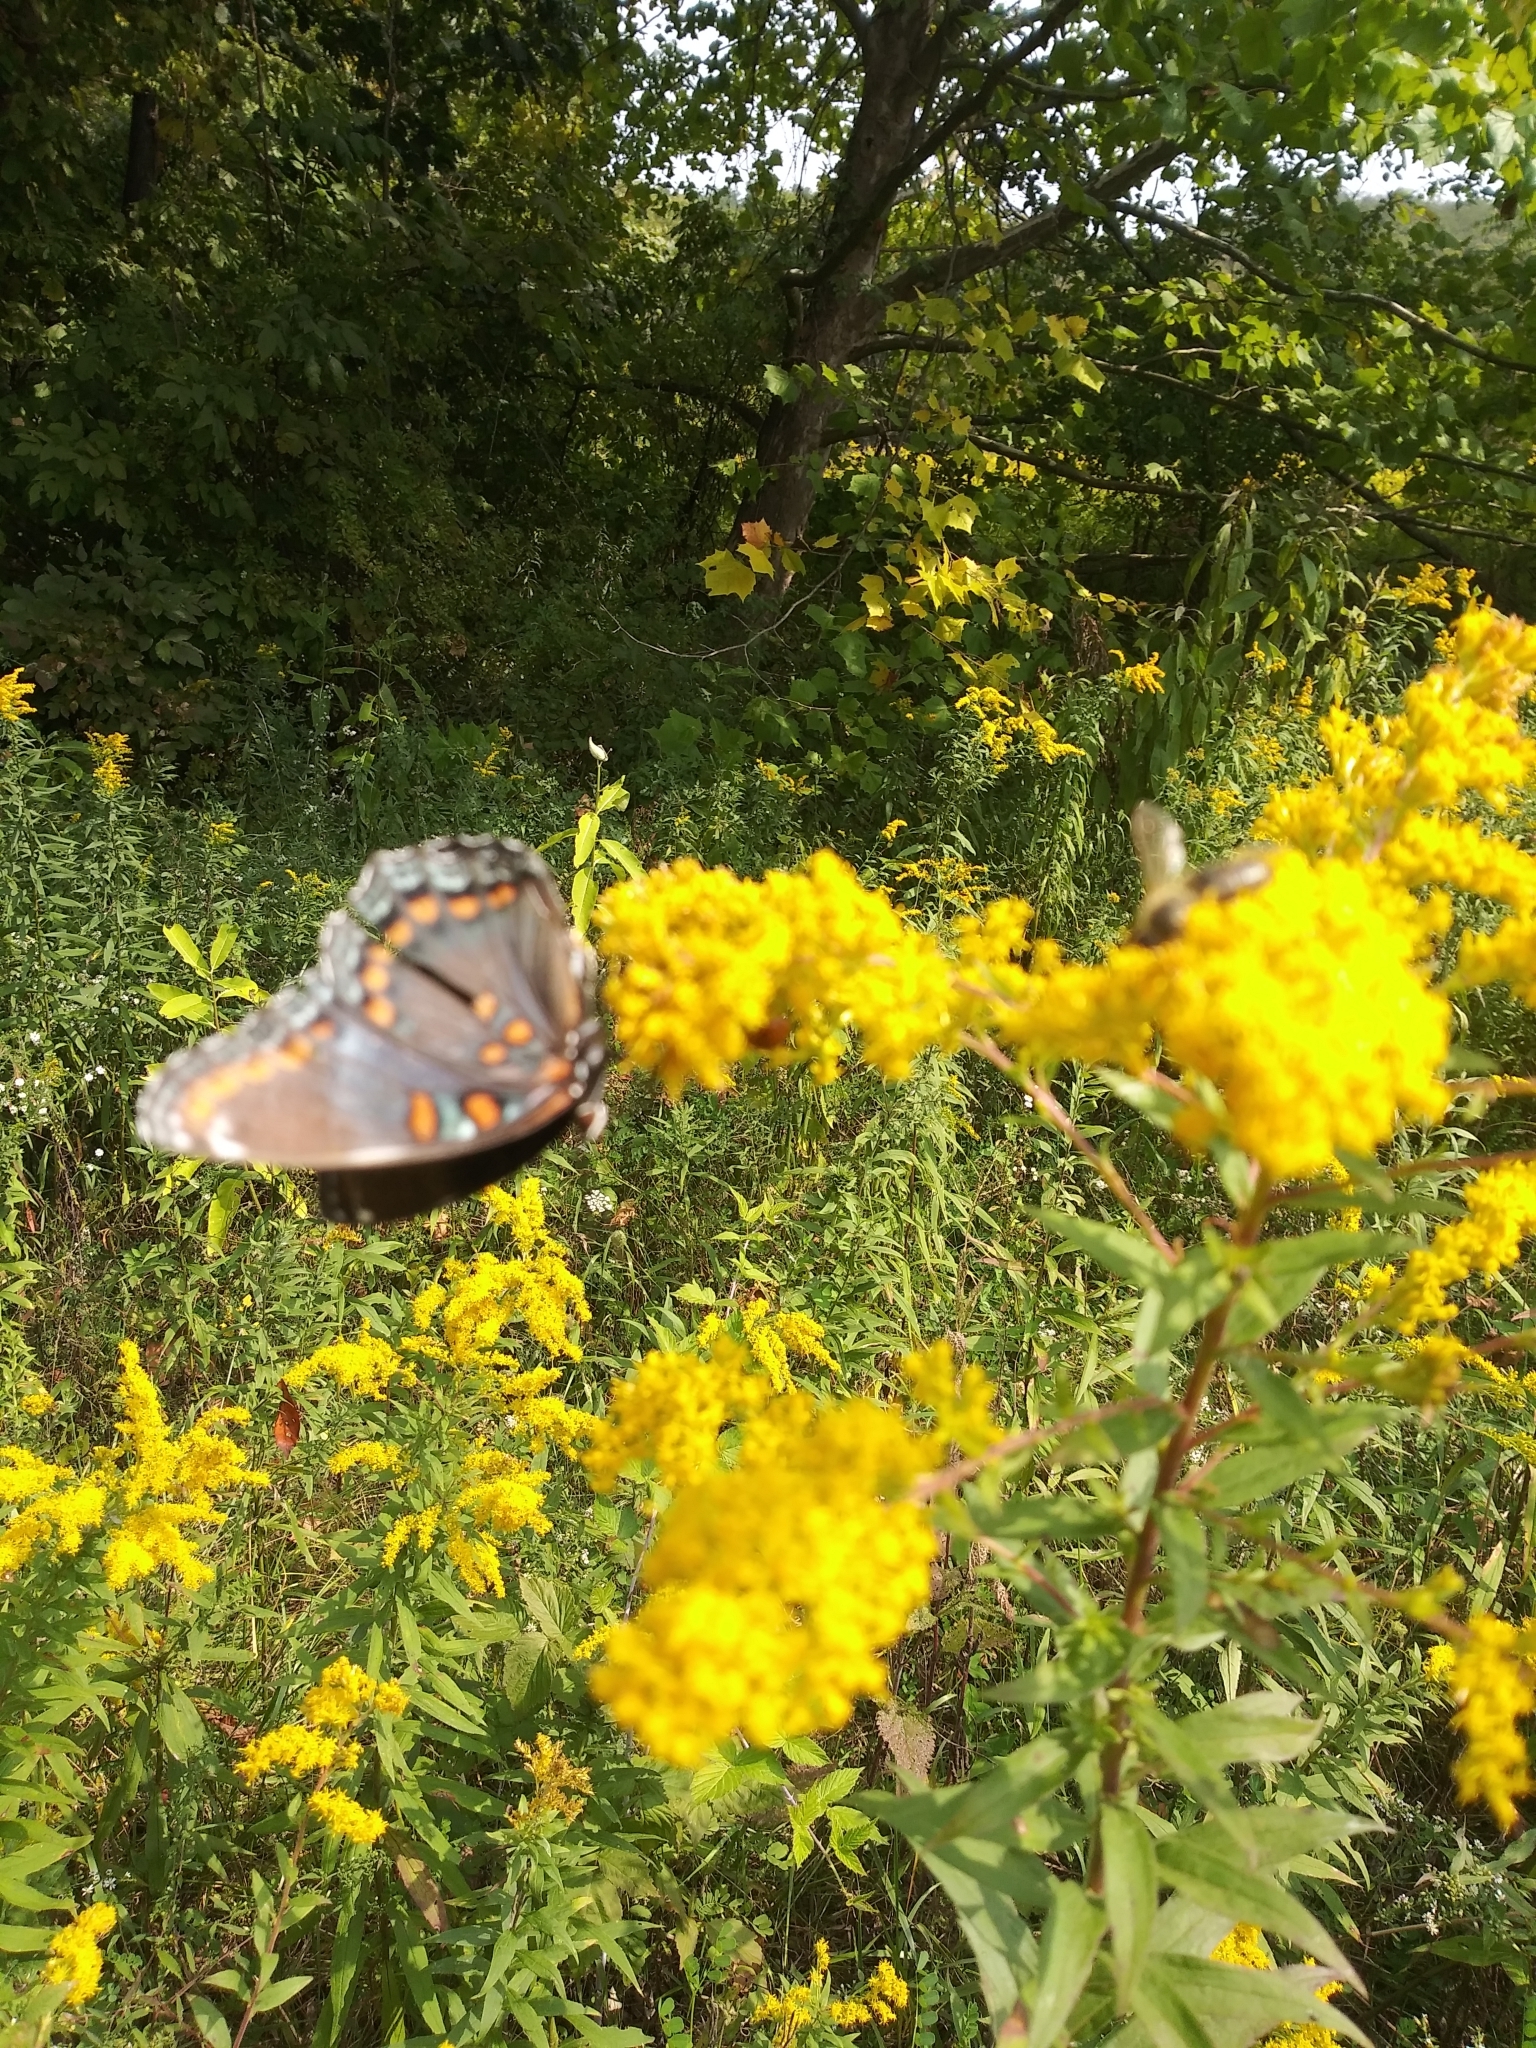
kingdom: Animalia
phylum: Arthropoda
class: Insecta
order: Lepidoptera
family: Nymphalidae
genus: Limenitis
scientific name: Limenitis astyanax
